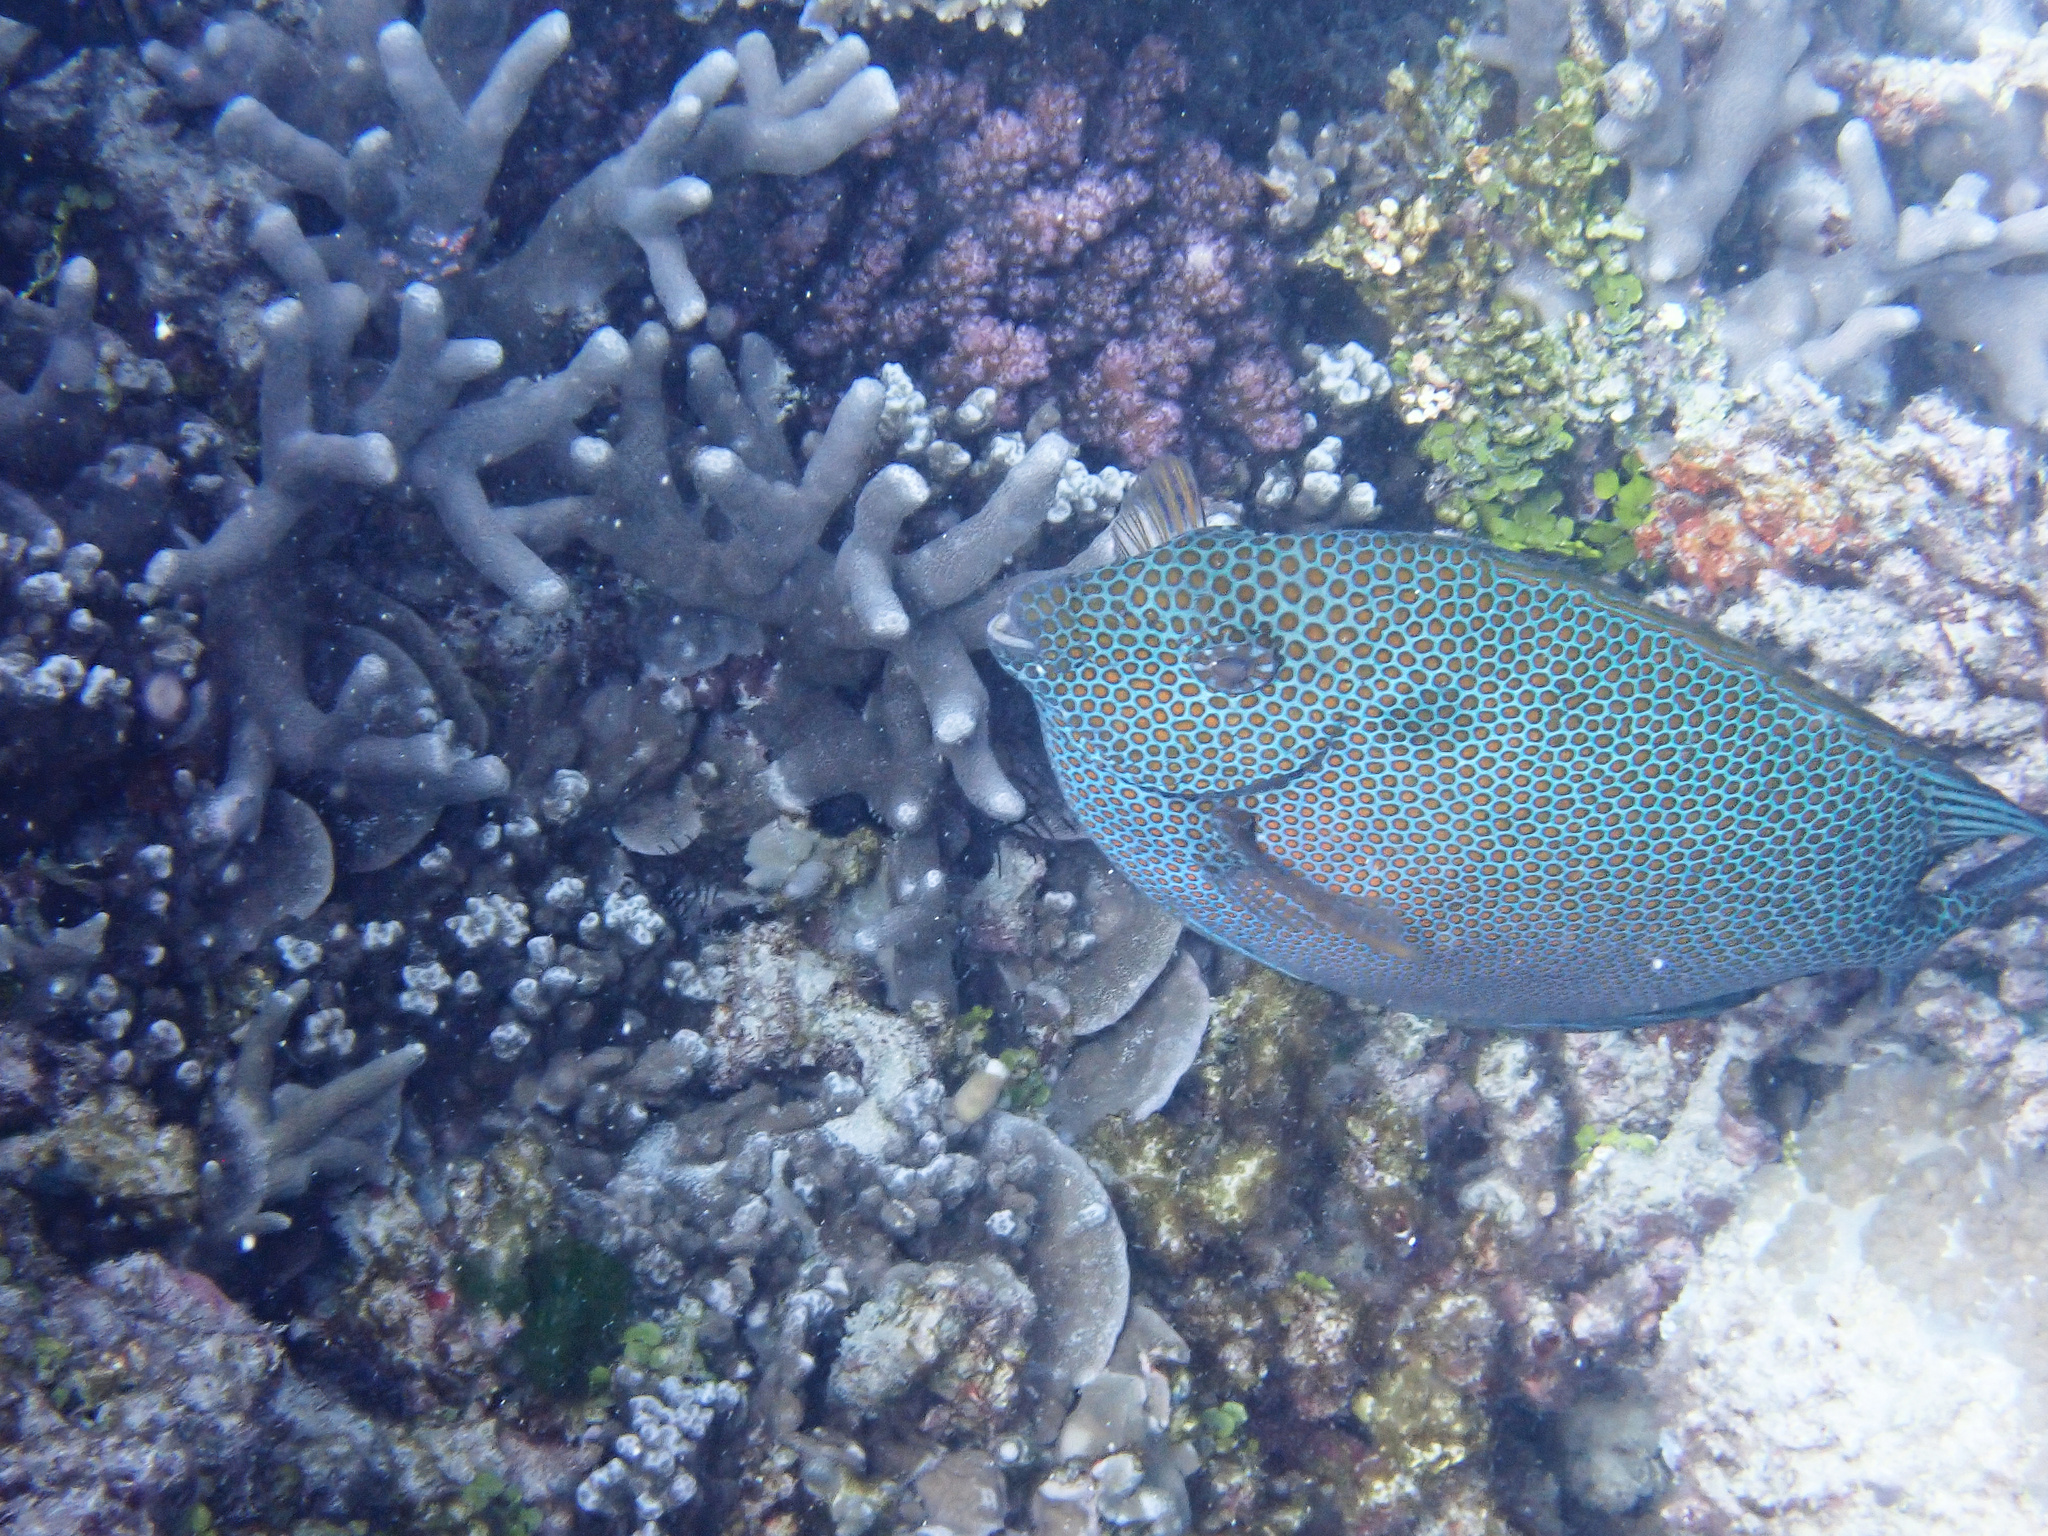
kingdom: Animalia
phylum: Chordata
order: Perciformes
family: Siganidae
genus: Siganus
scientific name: Siganus punctatus
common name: Gold-spotted rabbitfish
